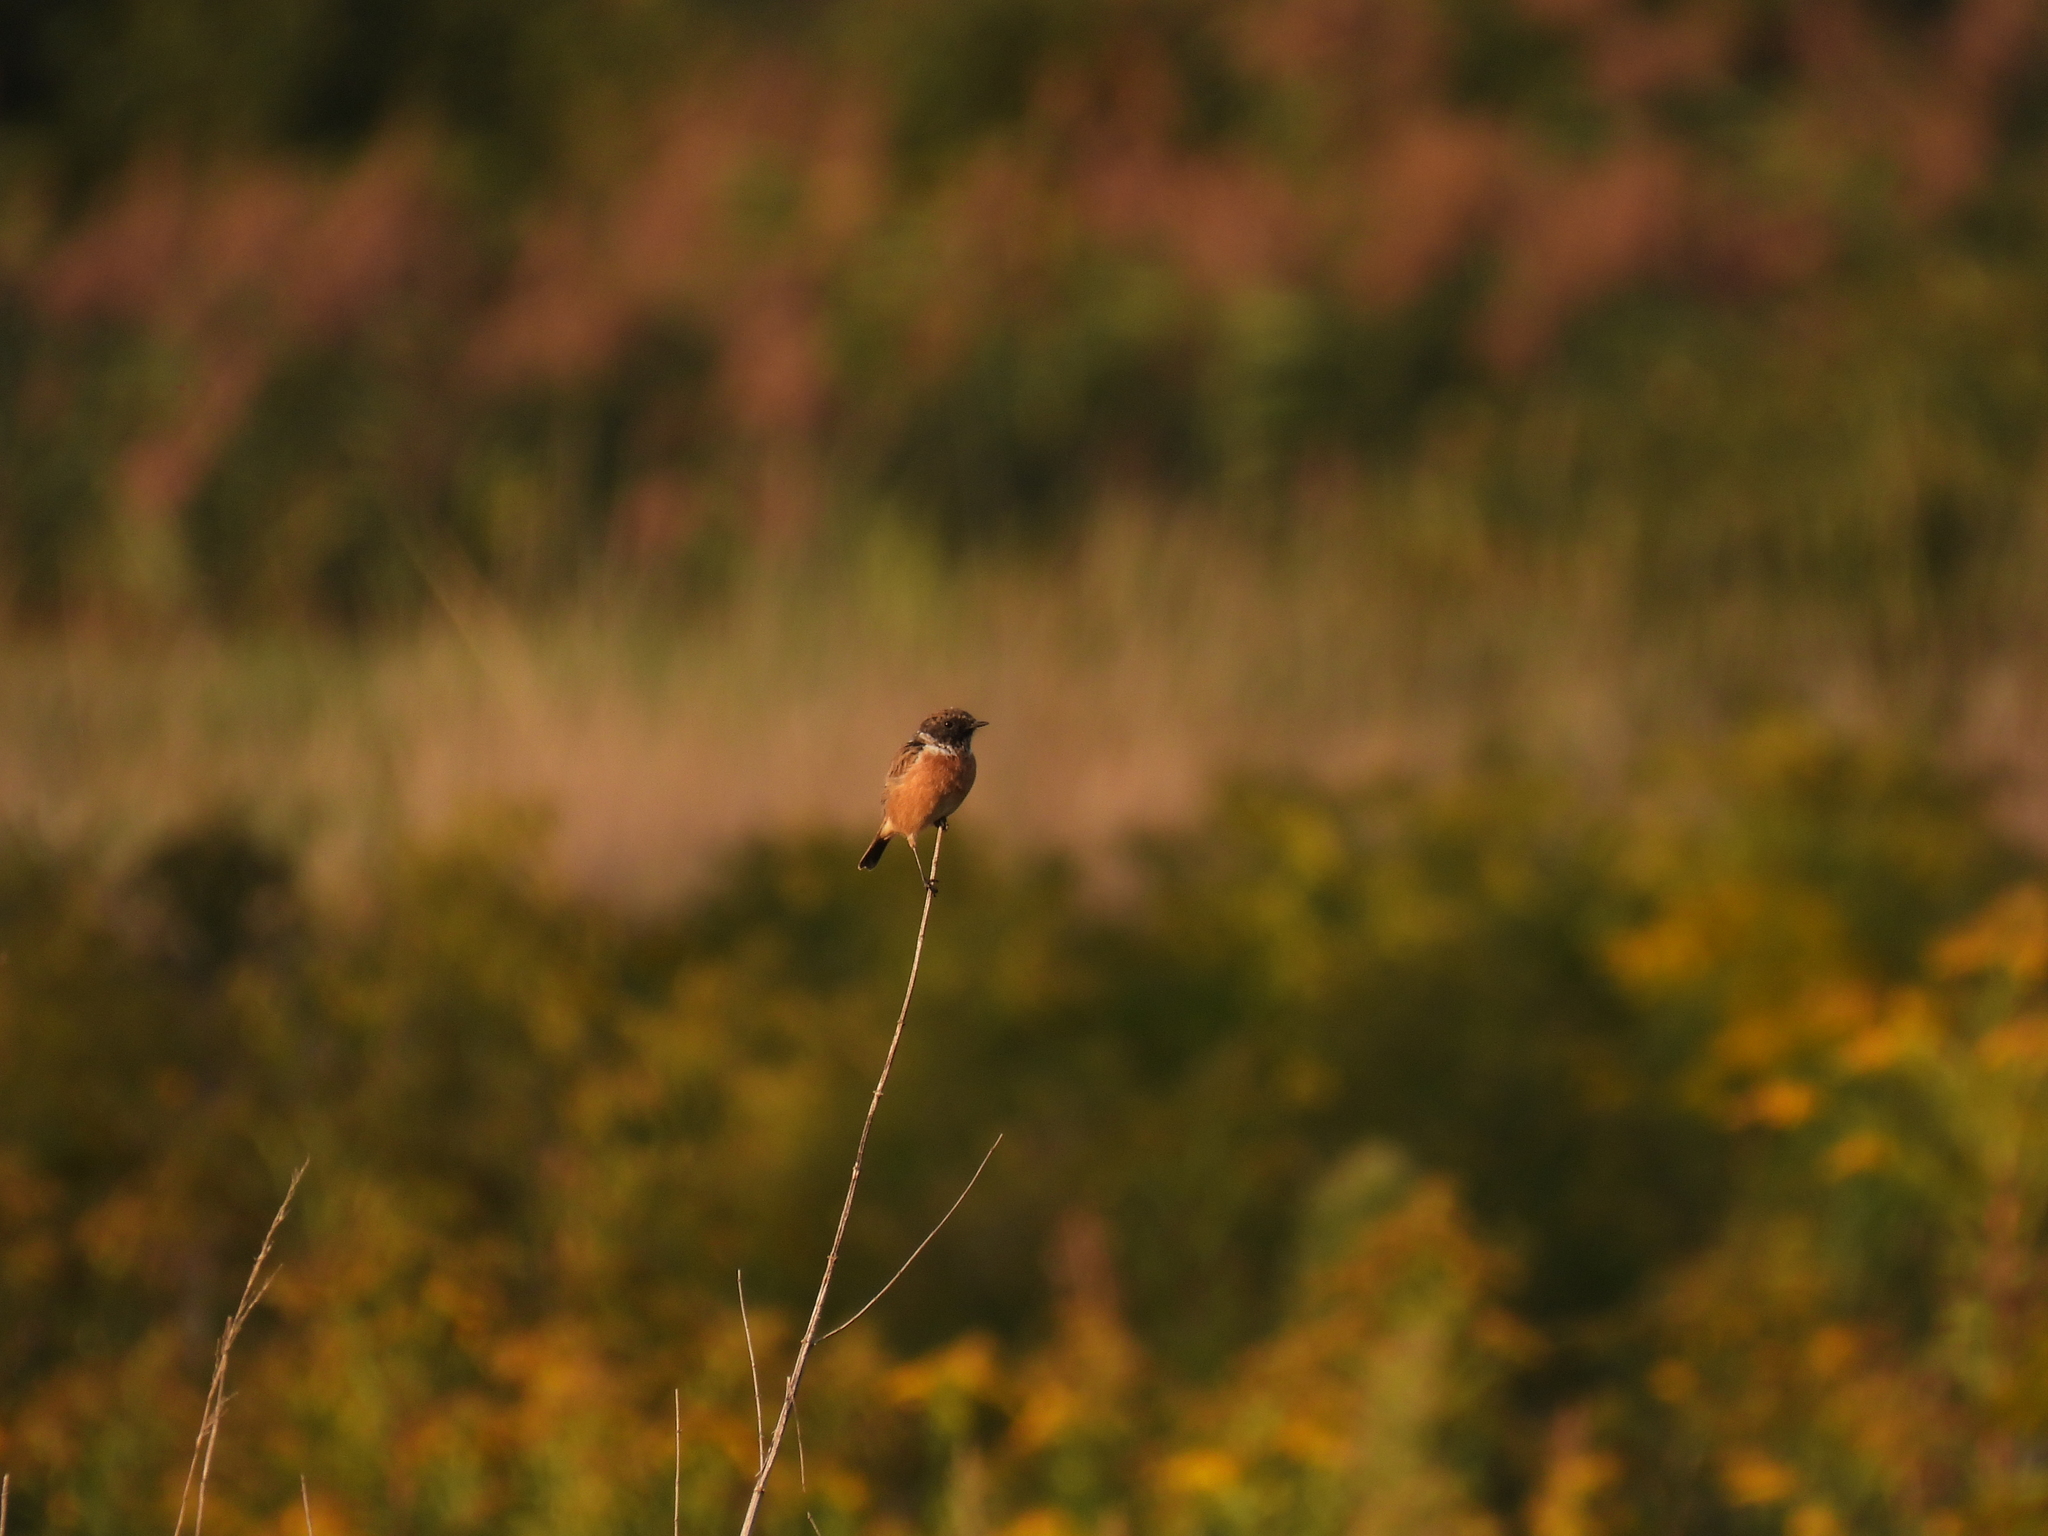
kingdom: Animalia
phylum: Chordata
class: Aves
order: Passeriformes
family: Muscicapidae
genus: Saxicola
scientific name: Saxicola rubicola
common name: European stonechat
